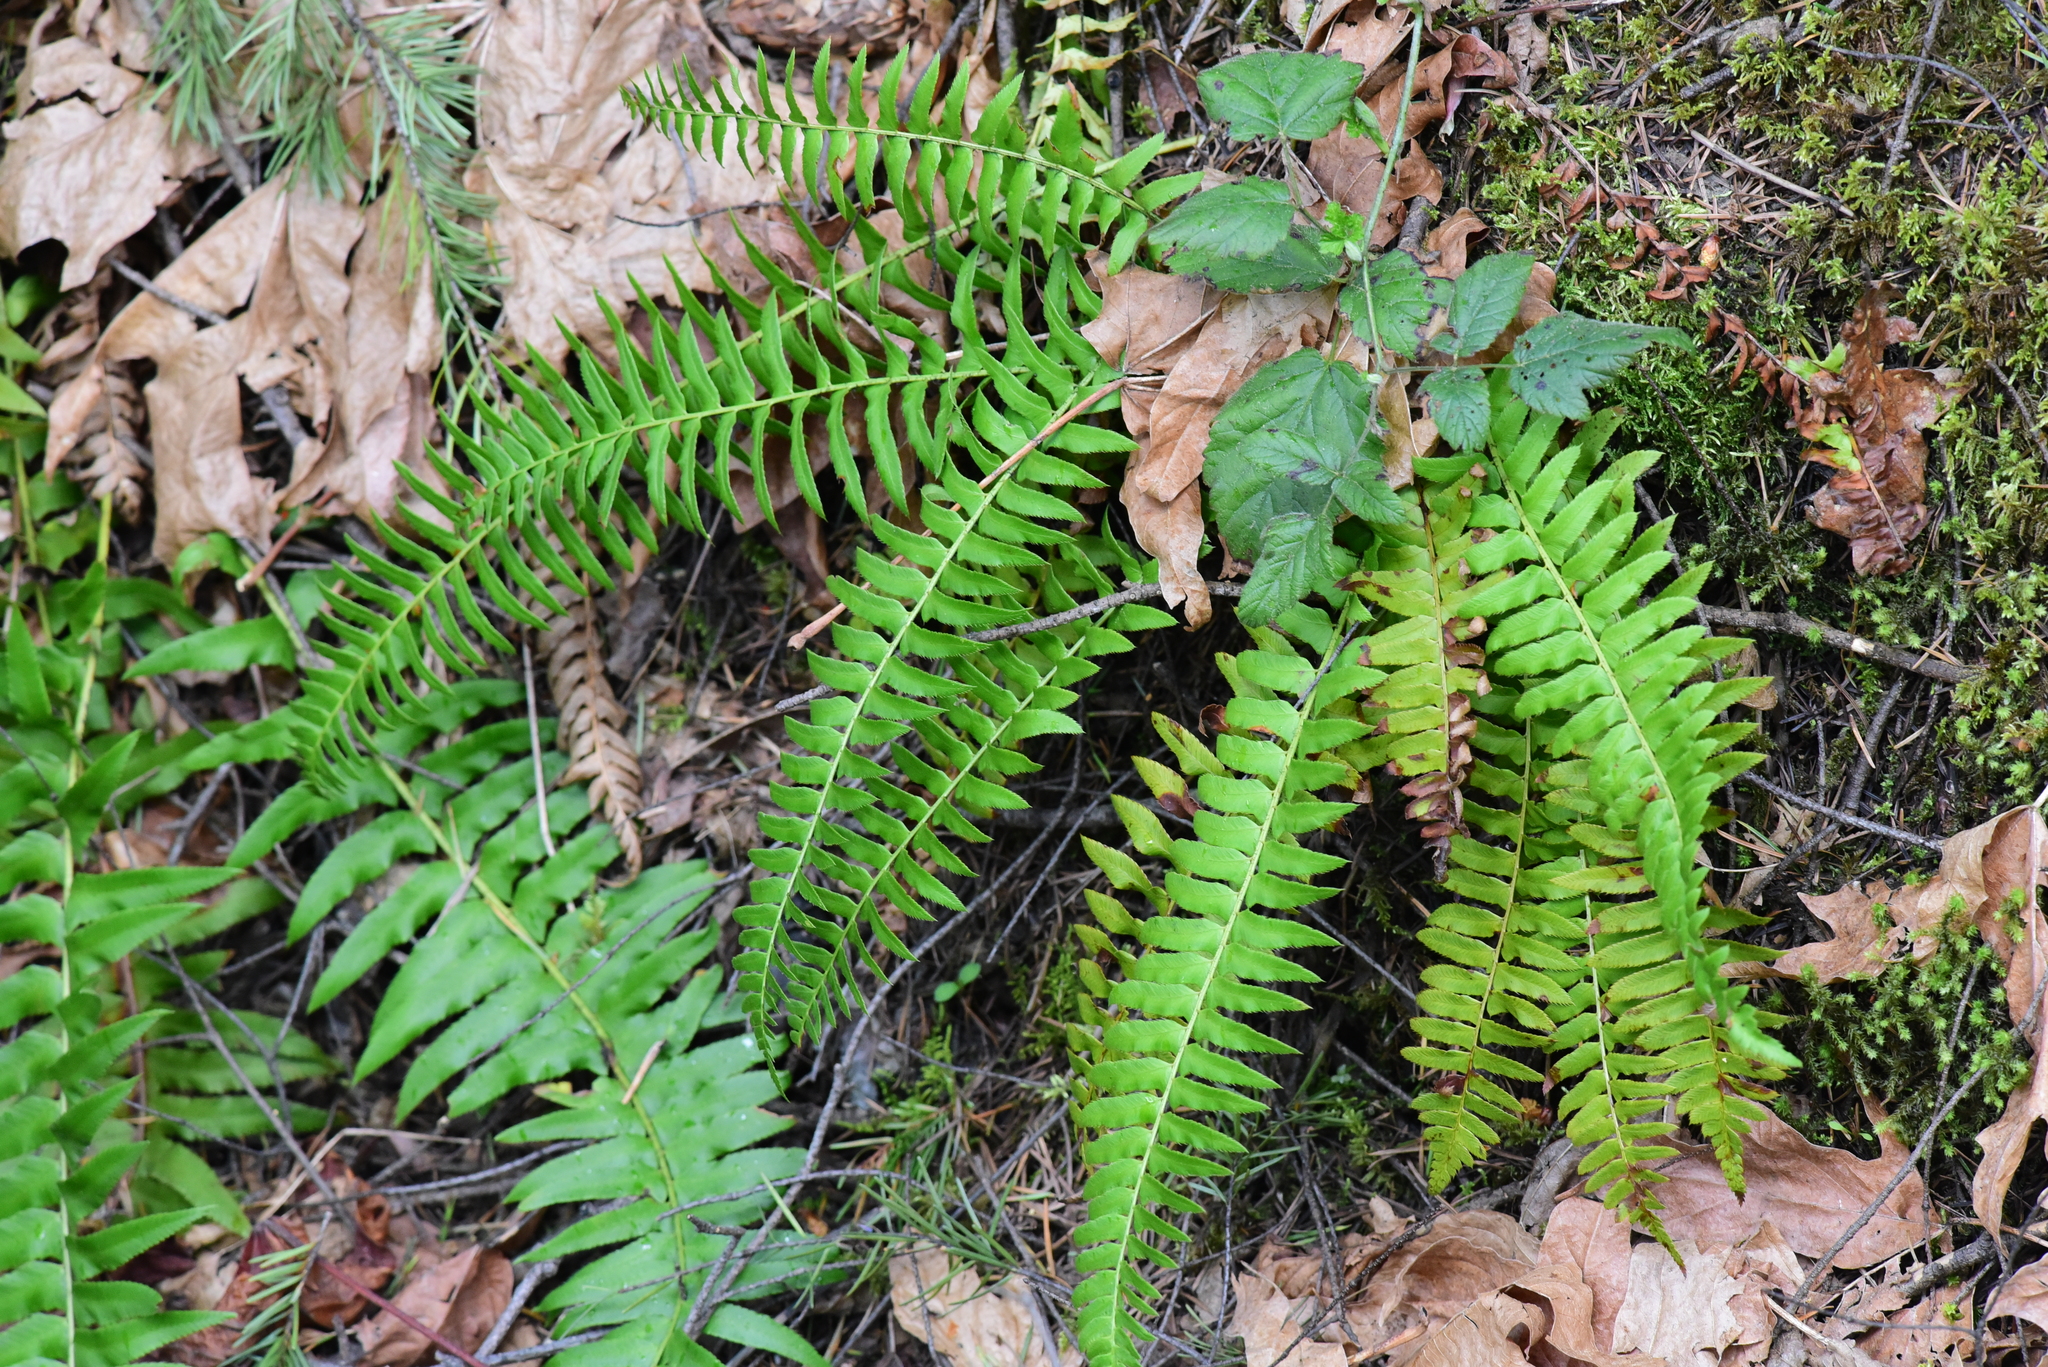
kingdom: Plantae
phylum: Tracheophyta
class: Polypodiopsida
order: Polypodiales
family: Dryopteridaceae
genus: Polystichum
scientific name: Polystichum munitum
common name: Western sword-fern
